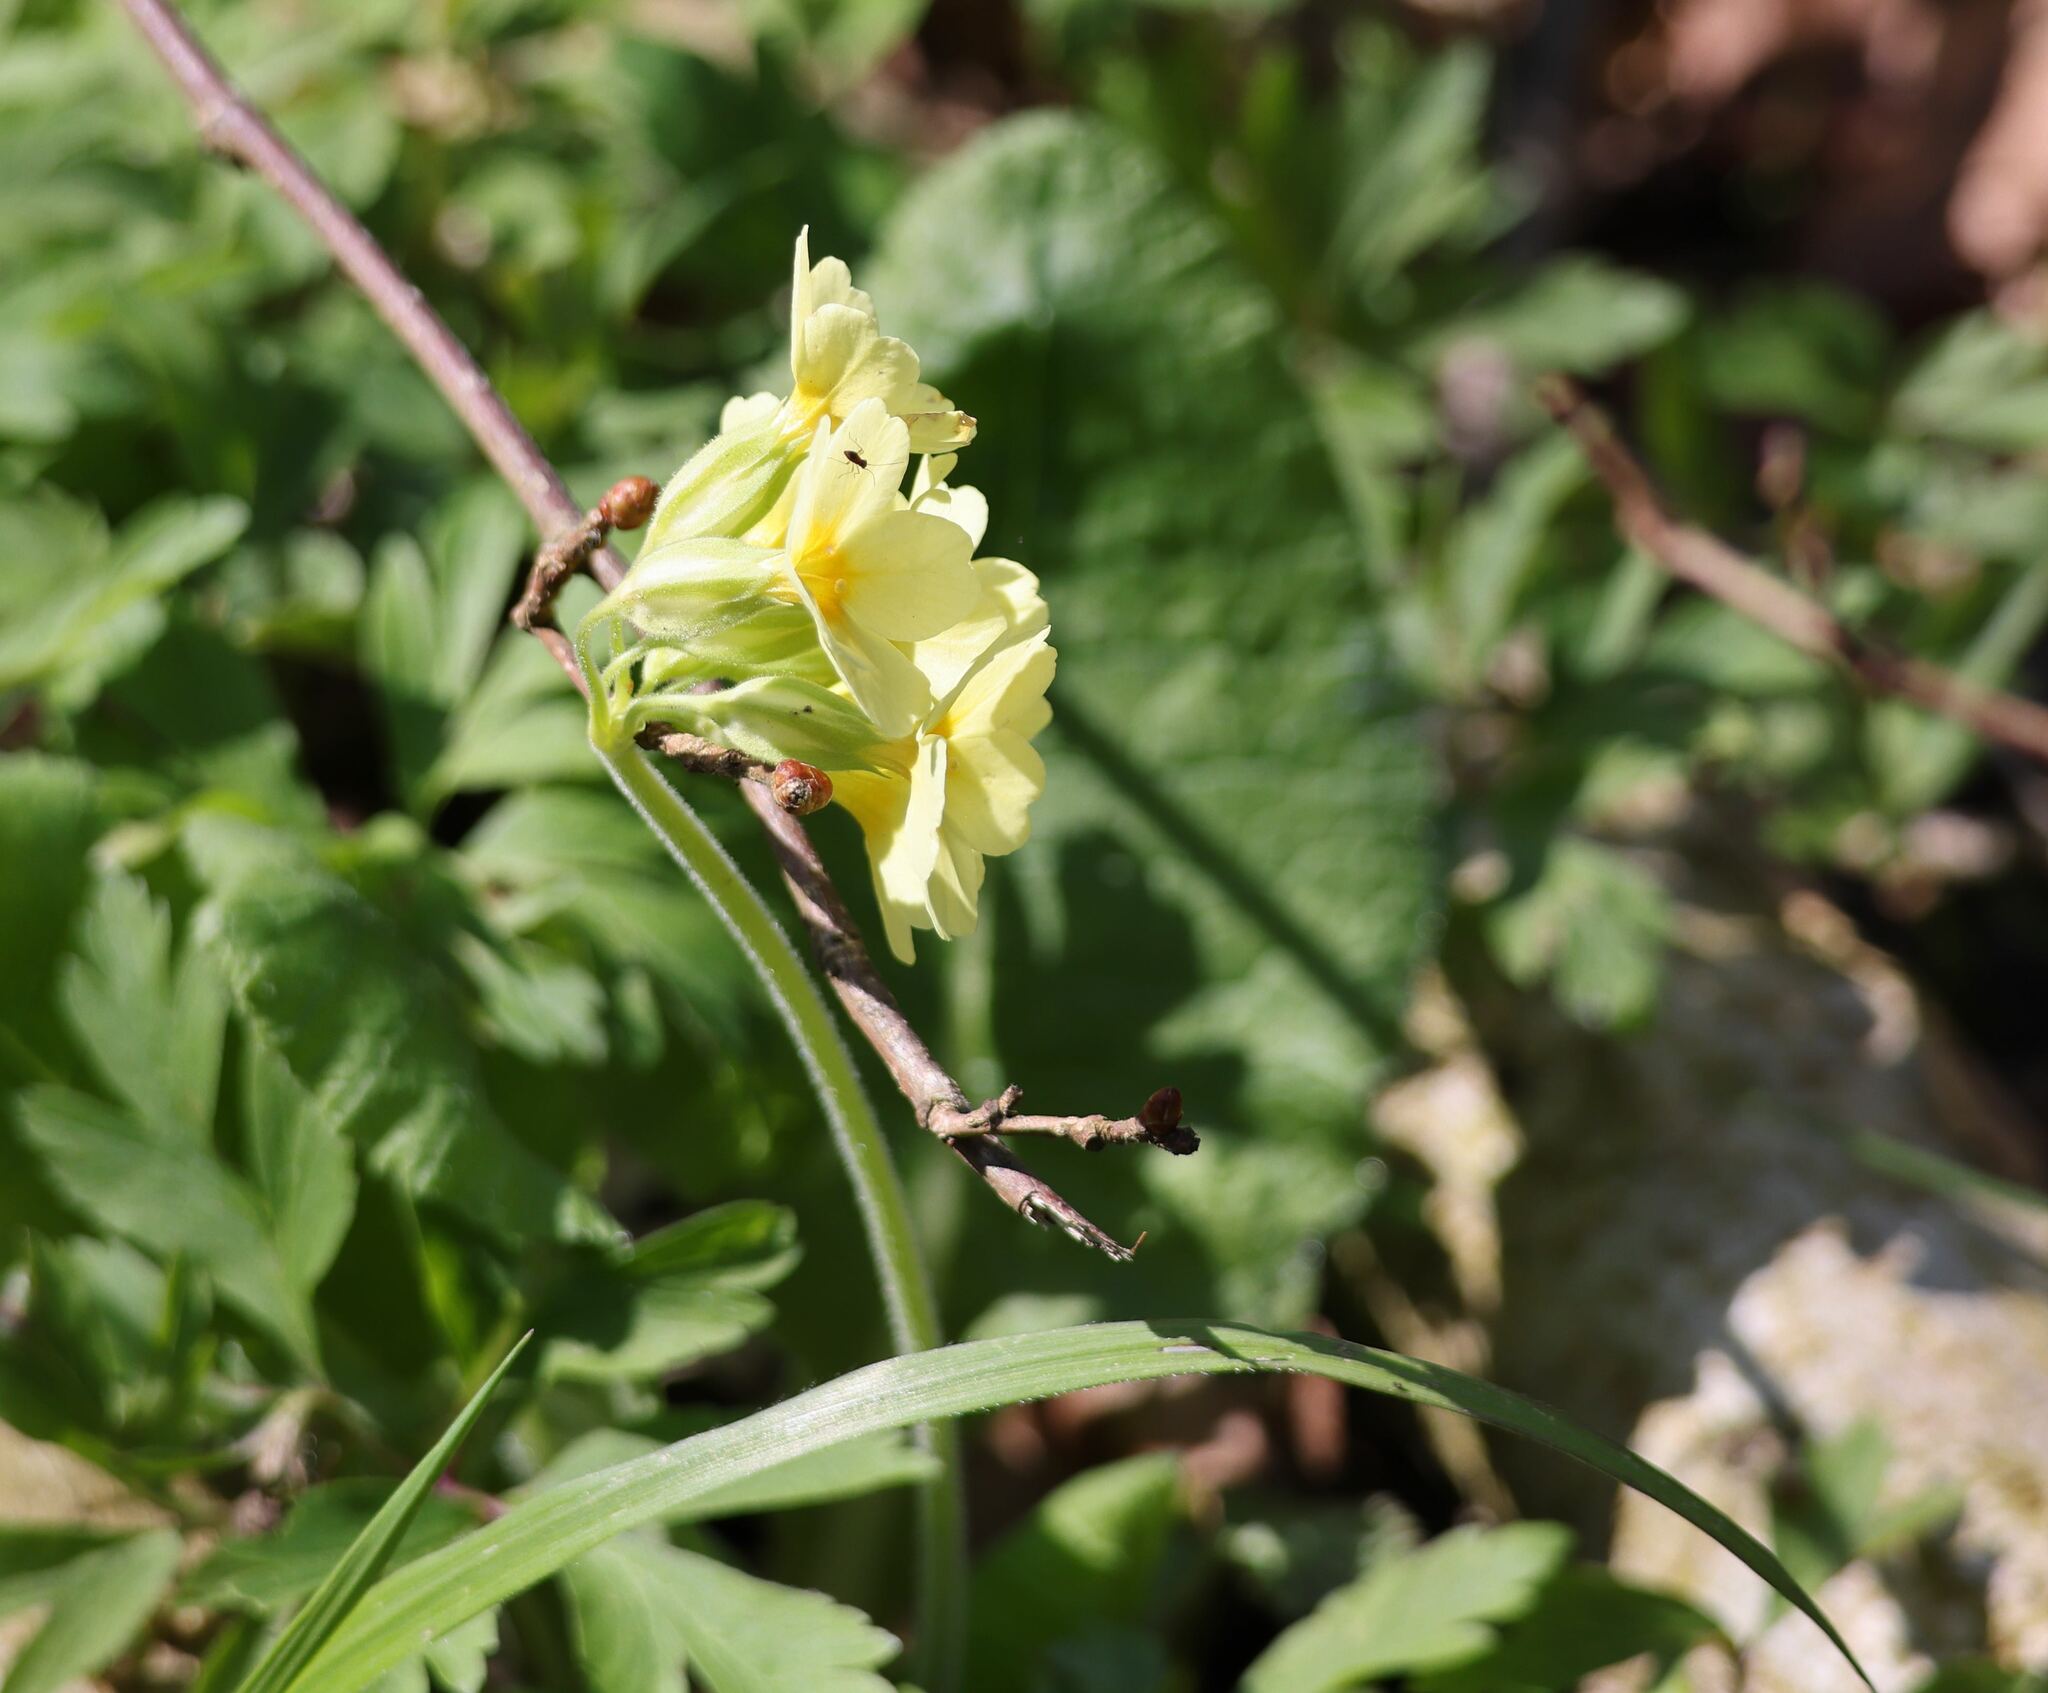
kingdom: Plantae
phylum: Tracheophyta
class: Magnoliopsida
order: Ericales
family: Primulaceae
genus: Primula
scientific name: Primula elatior
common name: Oxlip
